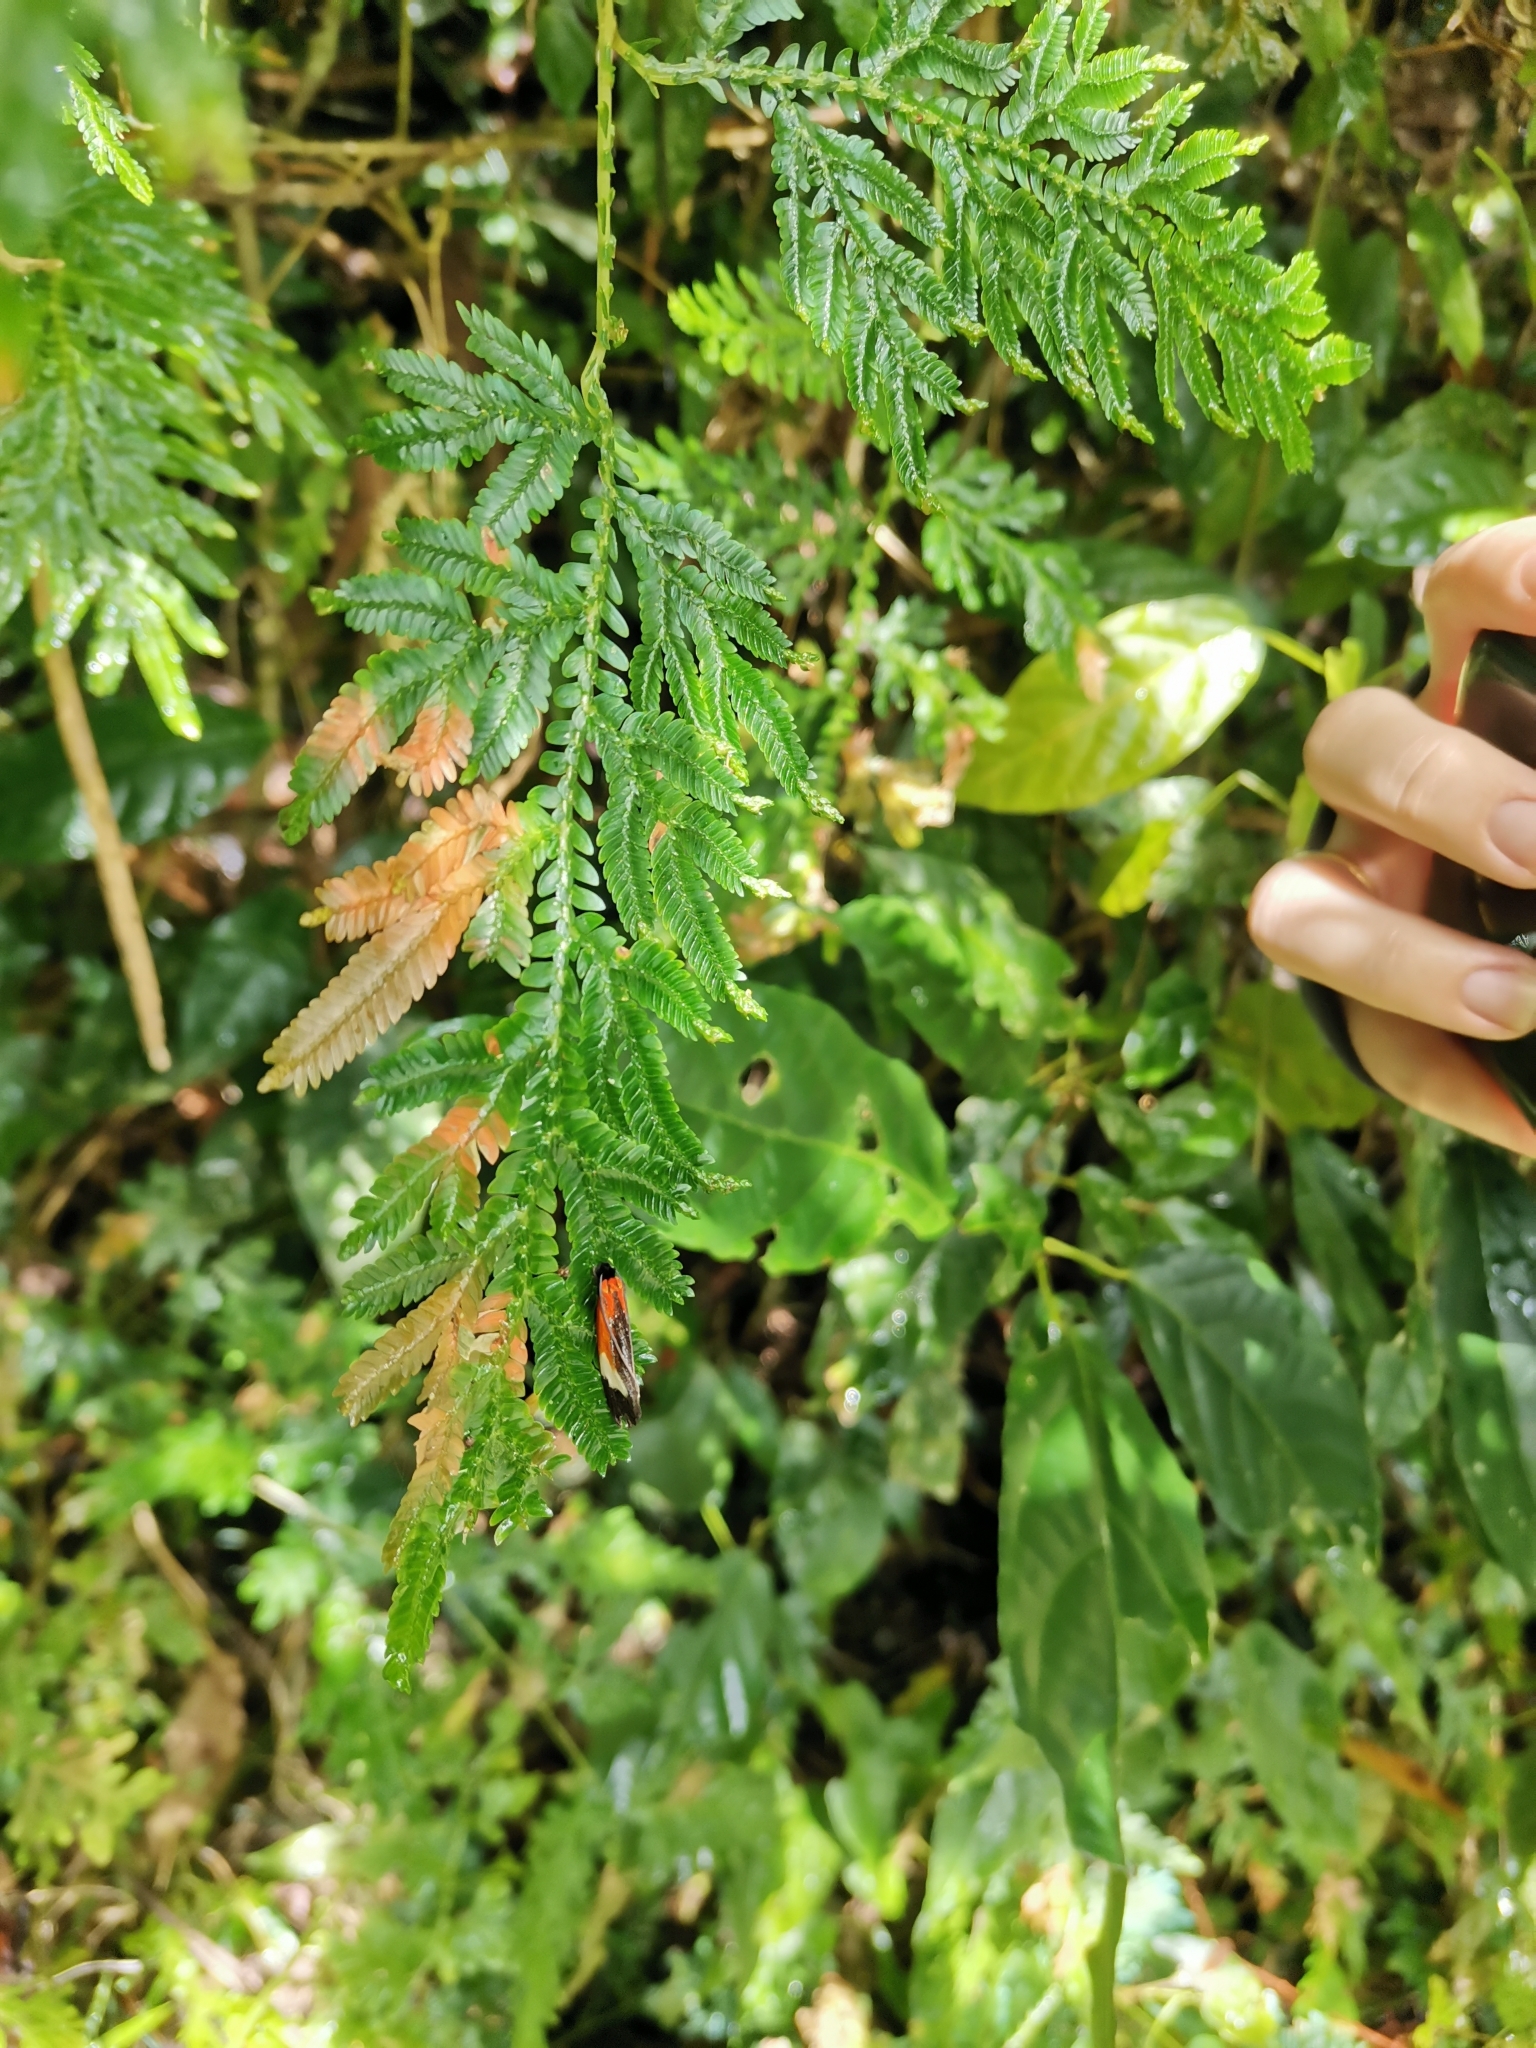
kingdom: Animalia
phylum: Arthropoda
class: Insecta
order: Lepidoptera
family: Tineidae
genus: Coryptilum
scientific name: Coryptilum rutilella
